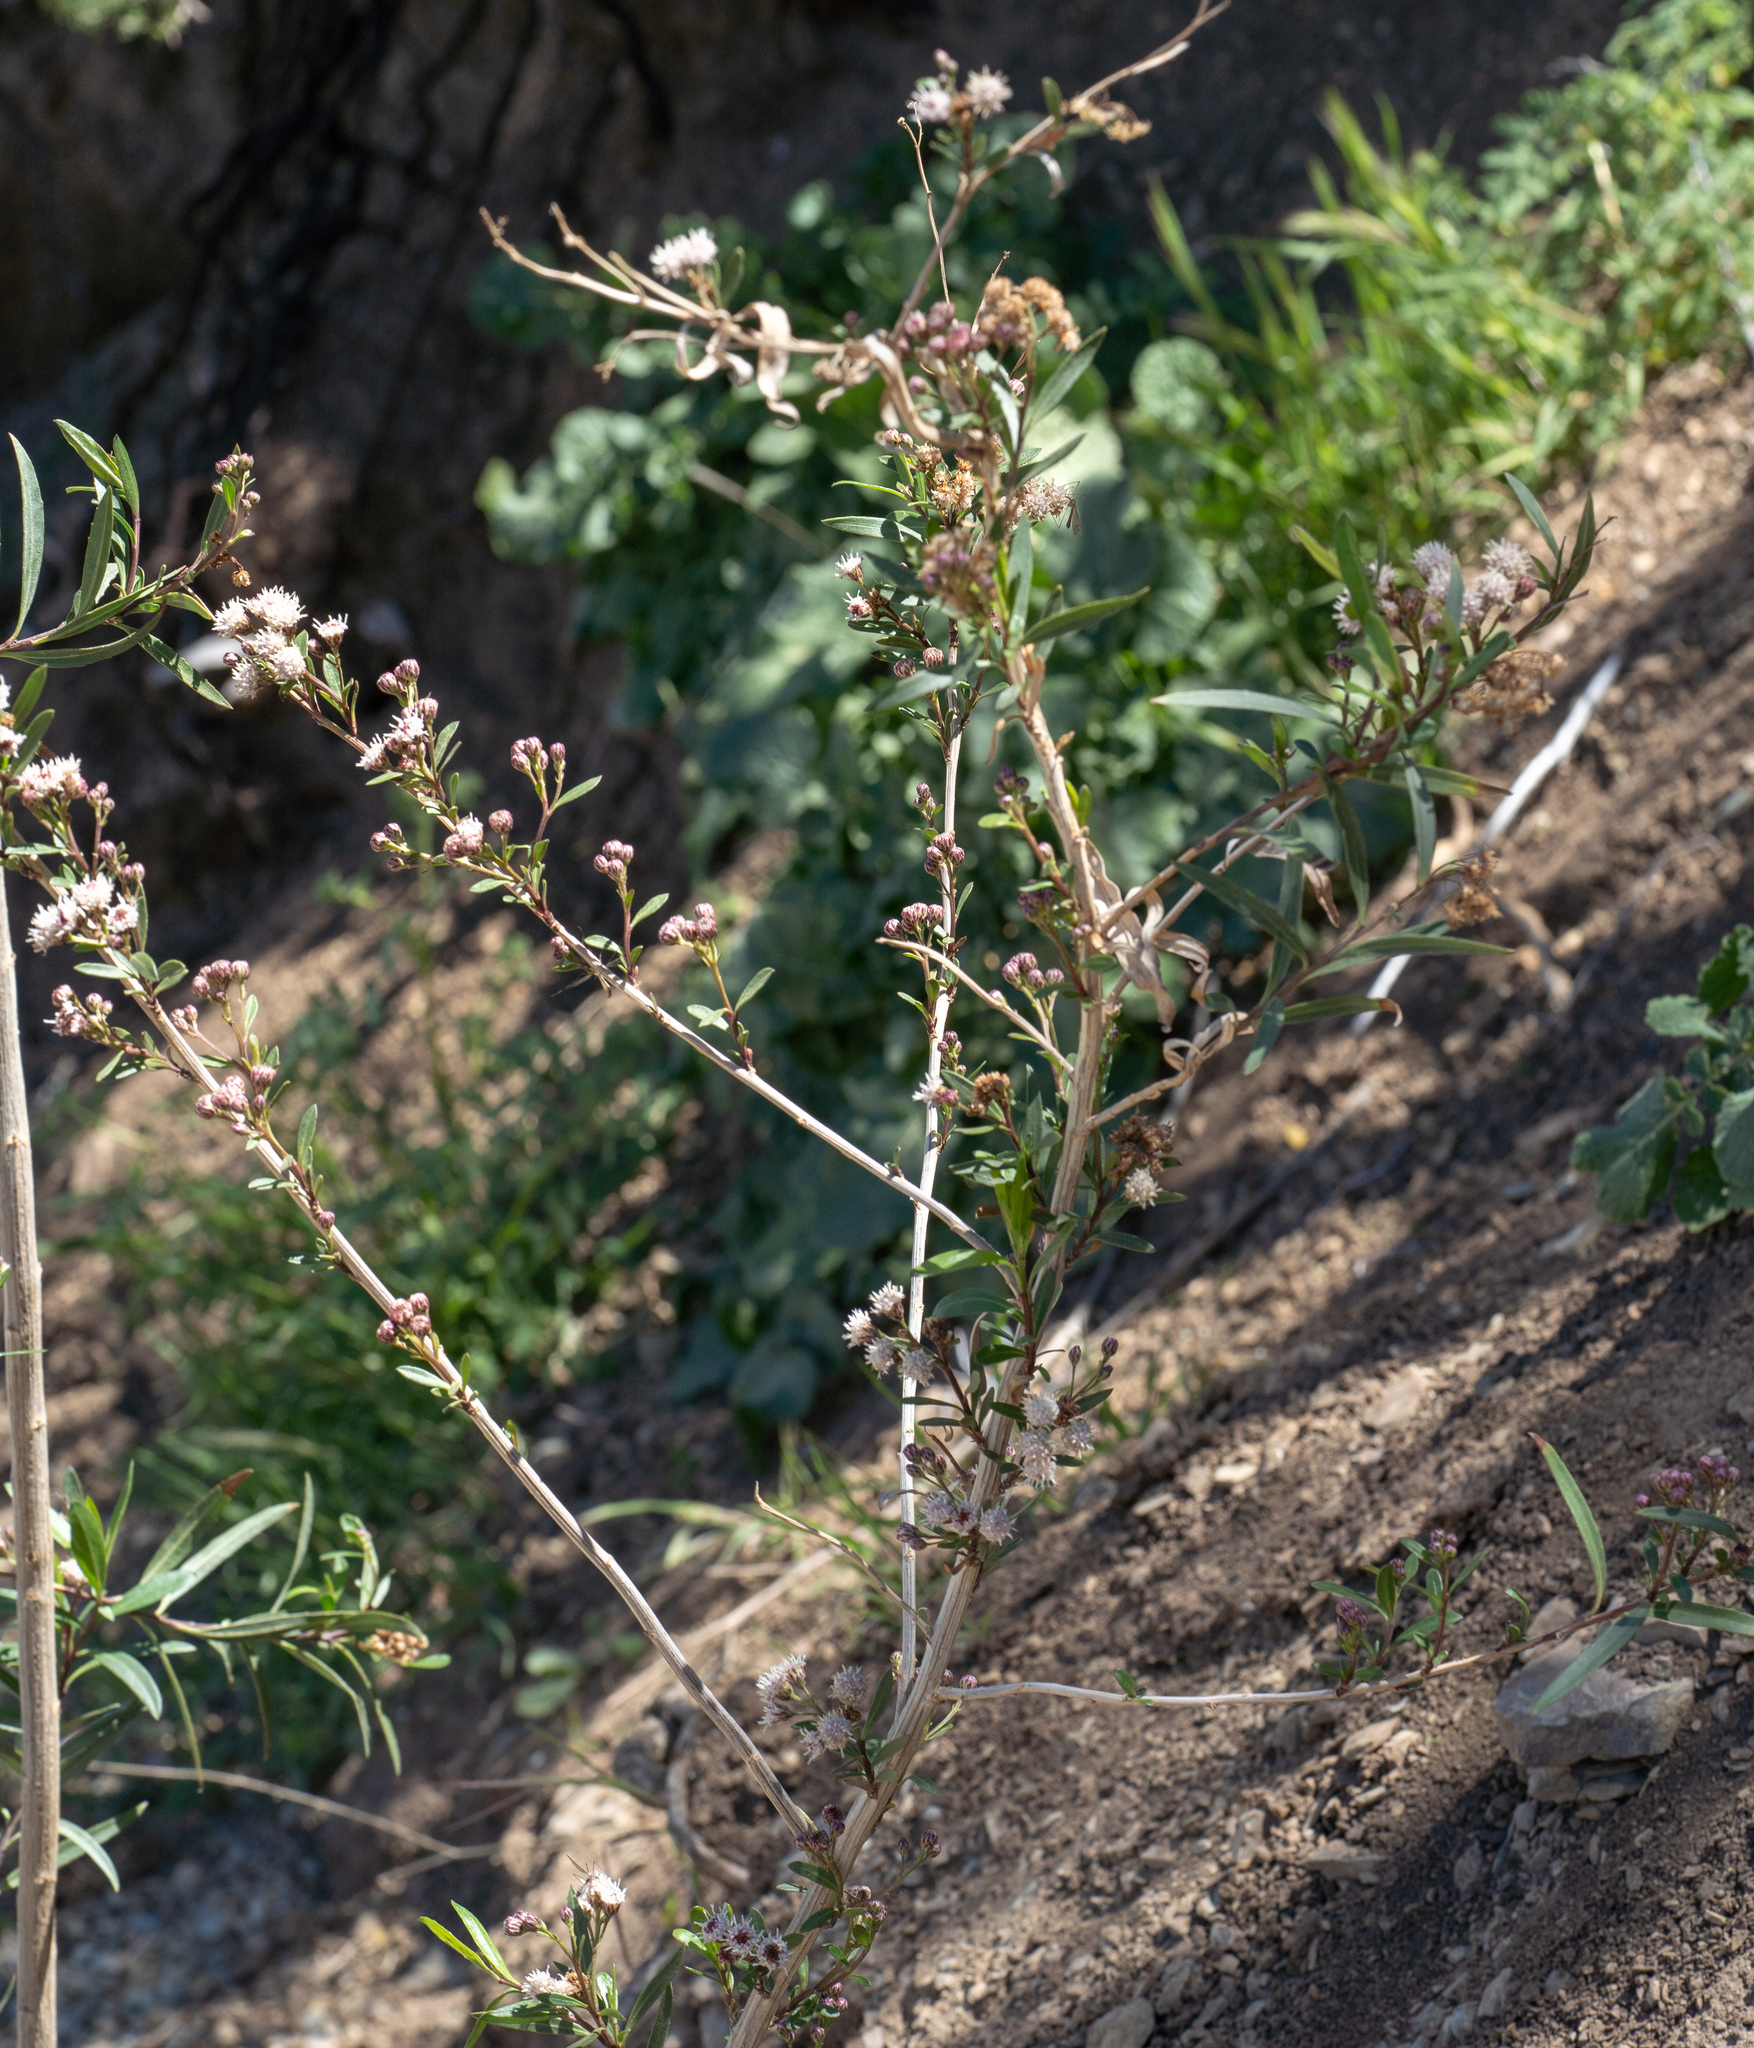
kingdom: Plantae
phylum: Tracheophyta
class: Magnoliopsida
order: Asterales
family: Asteraceae
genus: Baccharis
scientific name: Baccharis salicifolia
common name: Sticky baccharis
